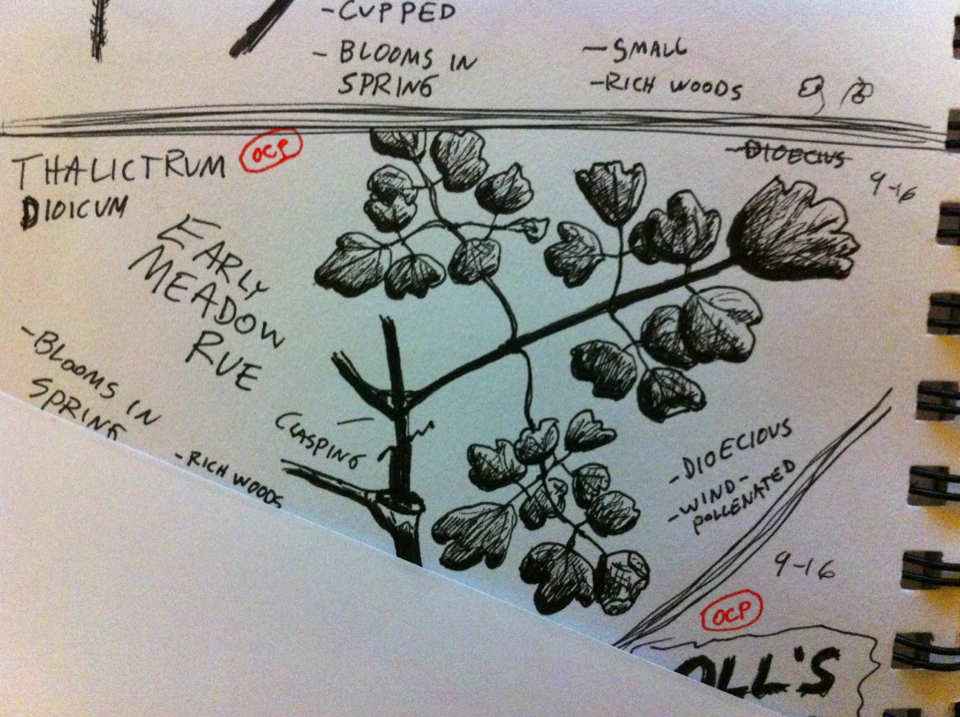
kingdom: Plantae
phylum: Tracheophyta
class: Magnoliopsida
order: Ranunculales
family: Ranunculaceae
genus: Thalictrum
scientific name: Thalictrum dioicum
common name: Early meadow-rue
